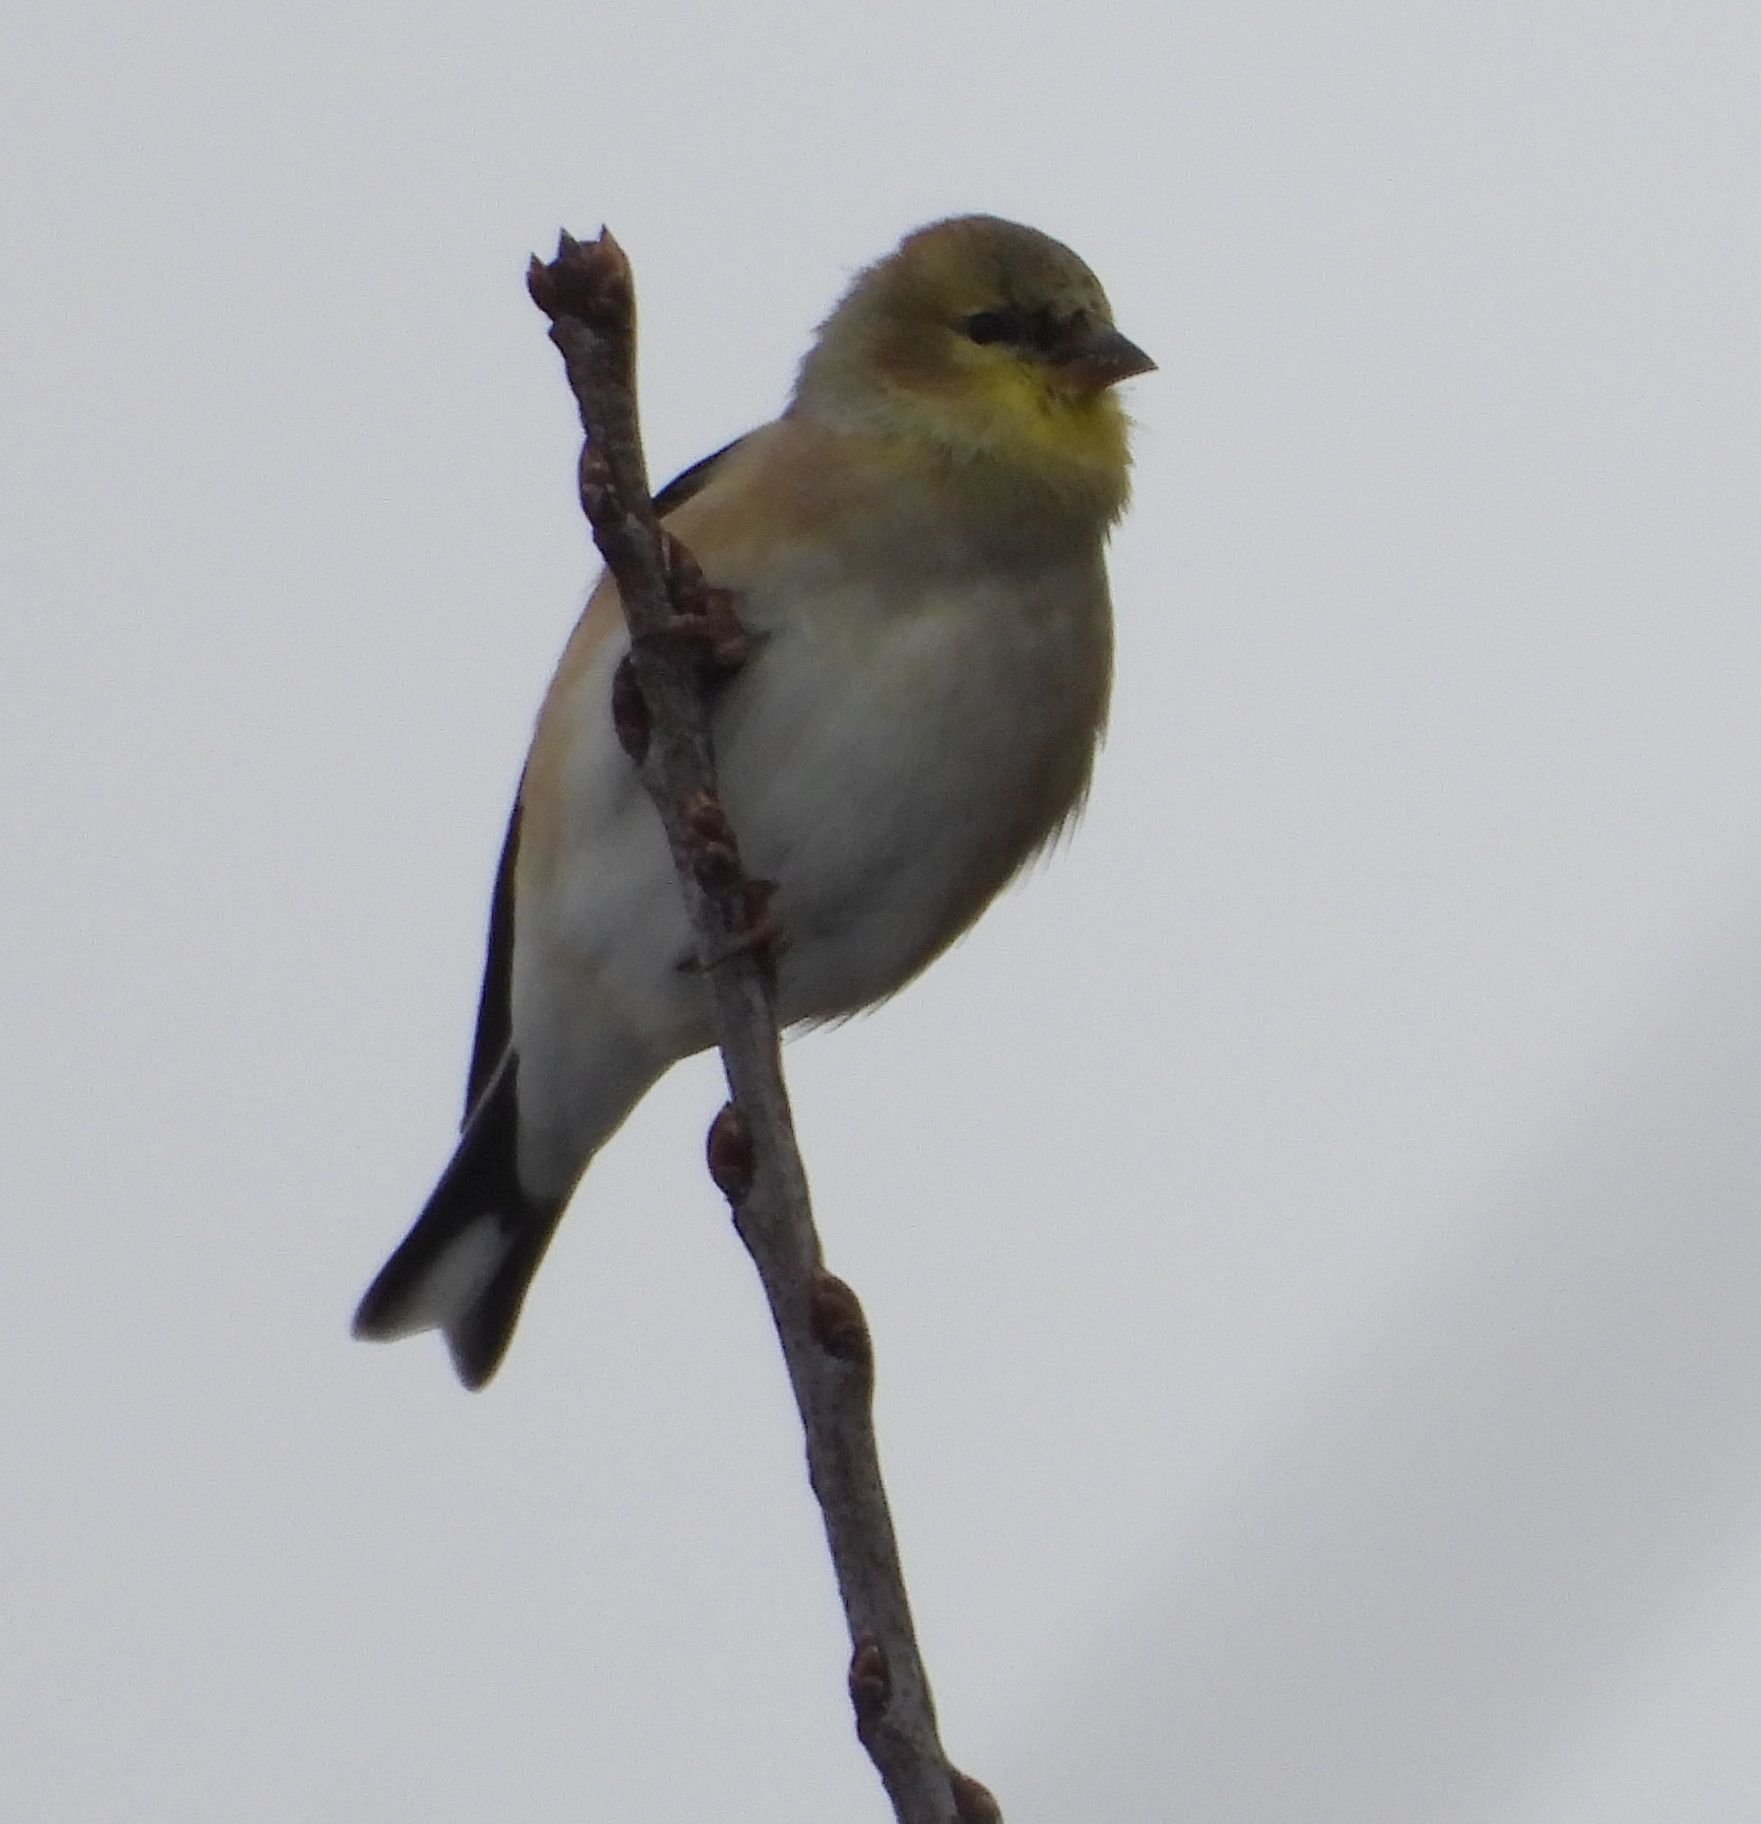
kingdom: Animalia
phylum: Chordata
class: Aves
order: Passeriformes
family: Fringillidae
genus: Spinus
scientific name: Spinus tristis
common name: American goldfinch
